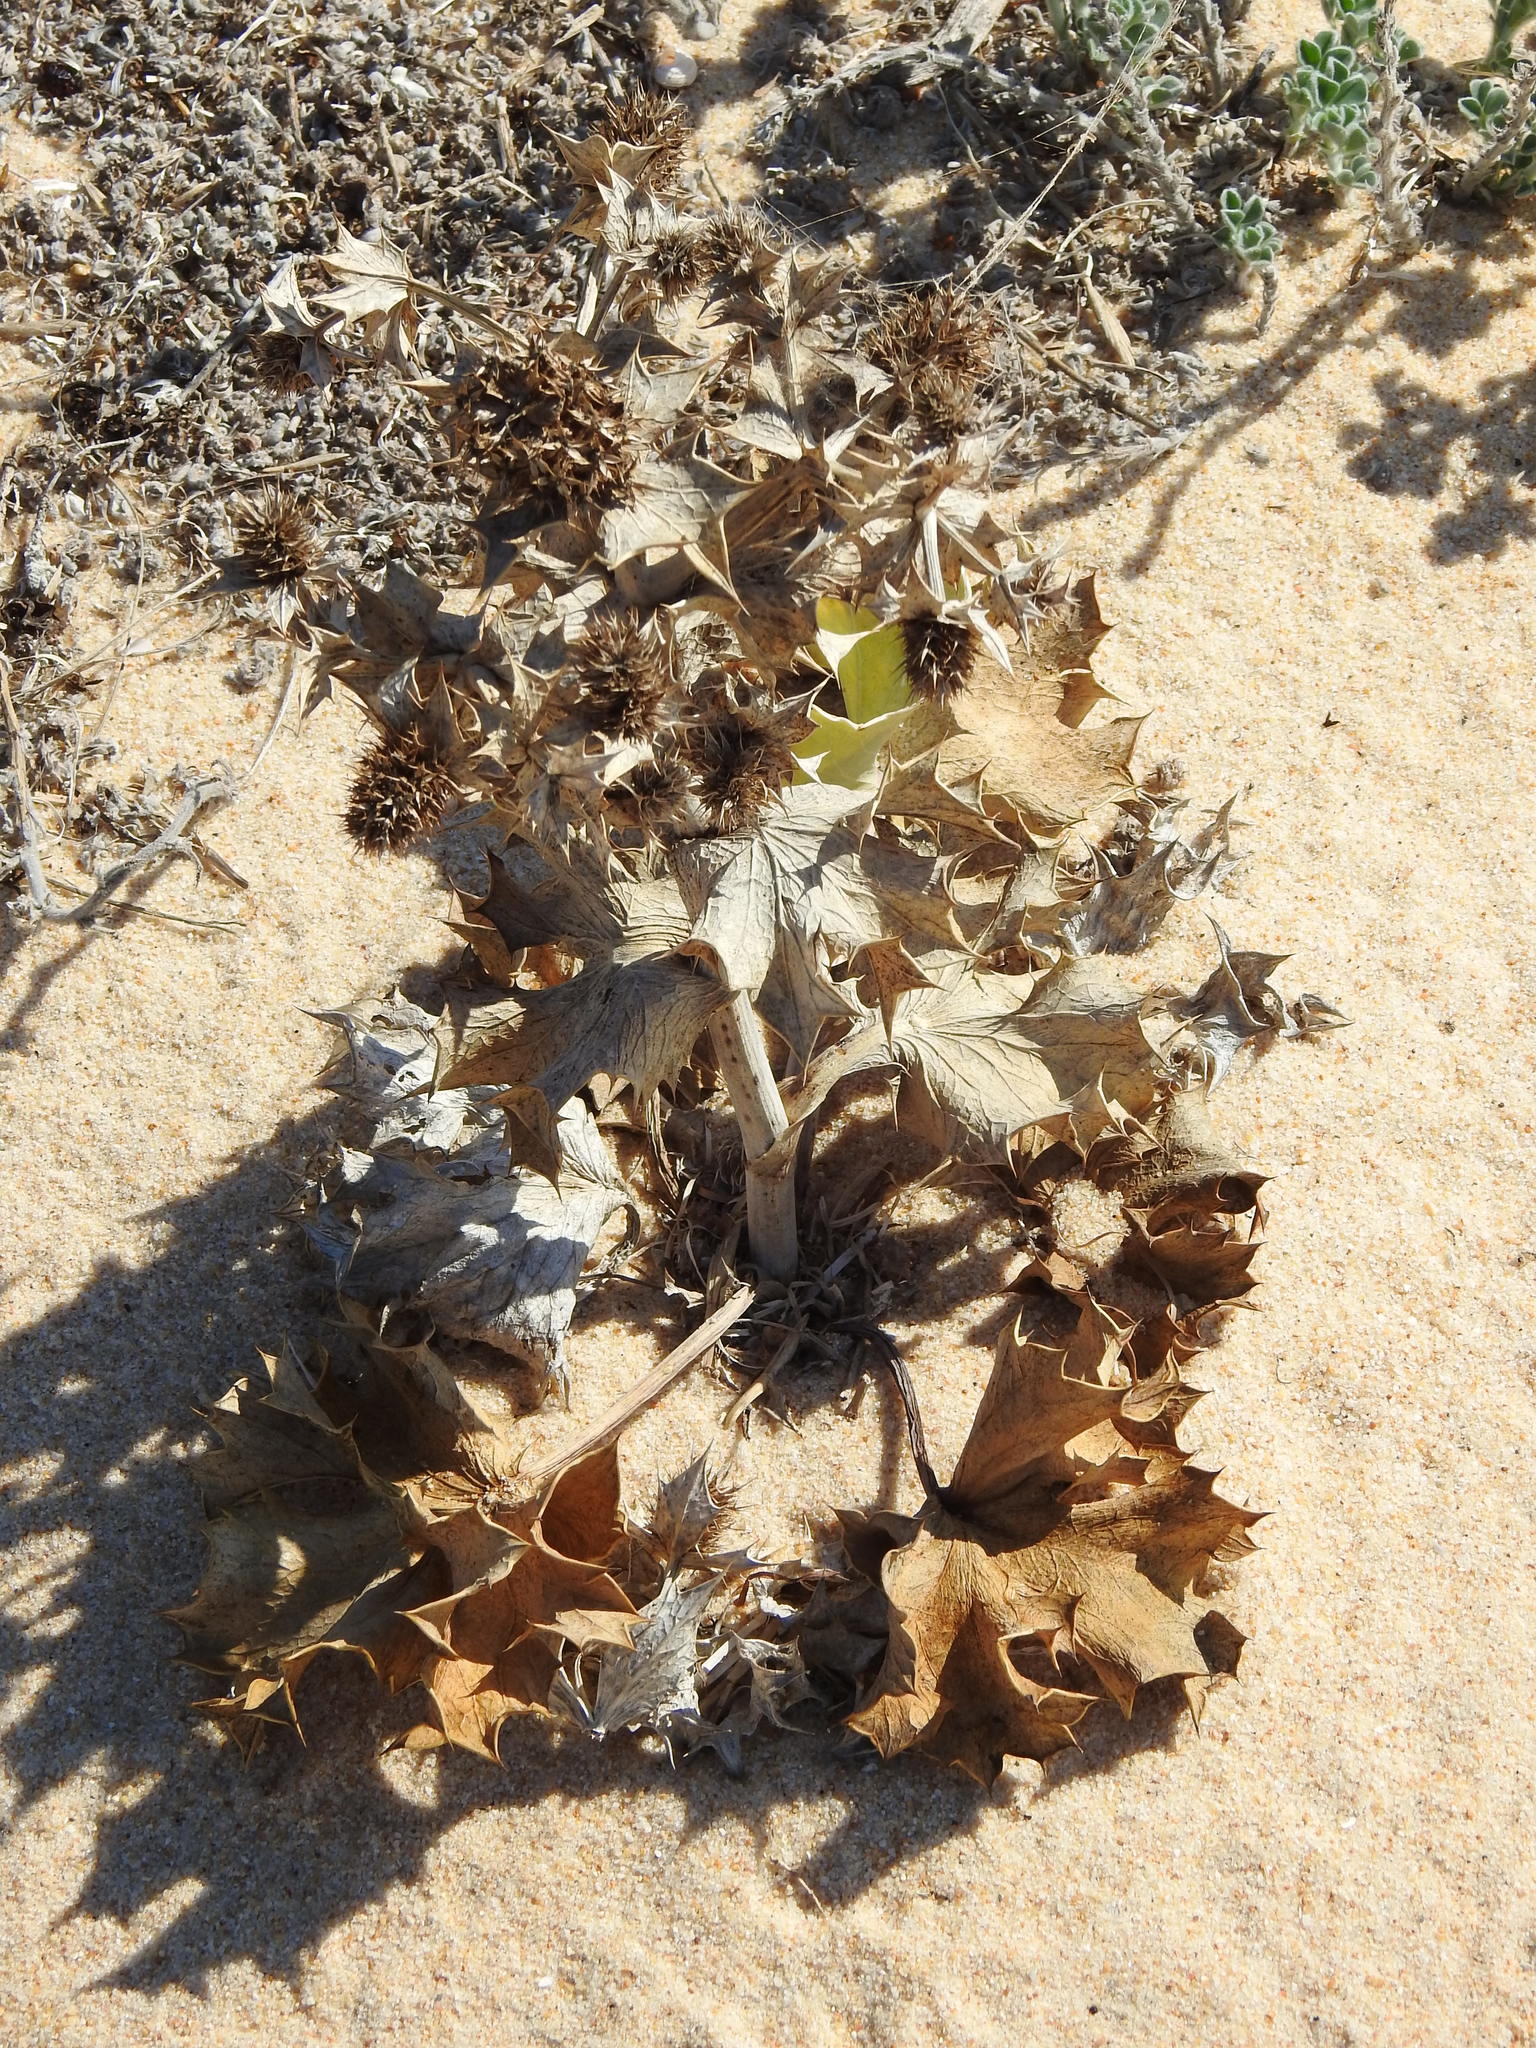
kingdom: Plantae
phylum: Tracheophyta
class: Magnoliopsida
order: Apiales
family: Apiaceae
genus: Eryngium
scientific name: Eryngium maritimum
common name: Sea-holly
